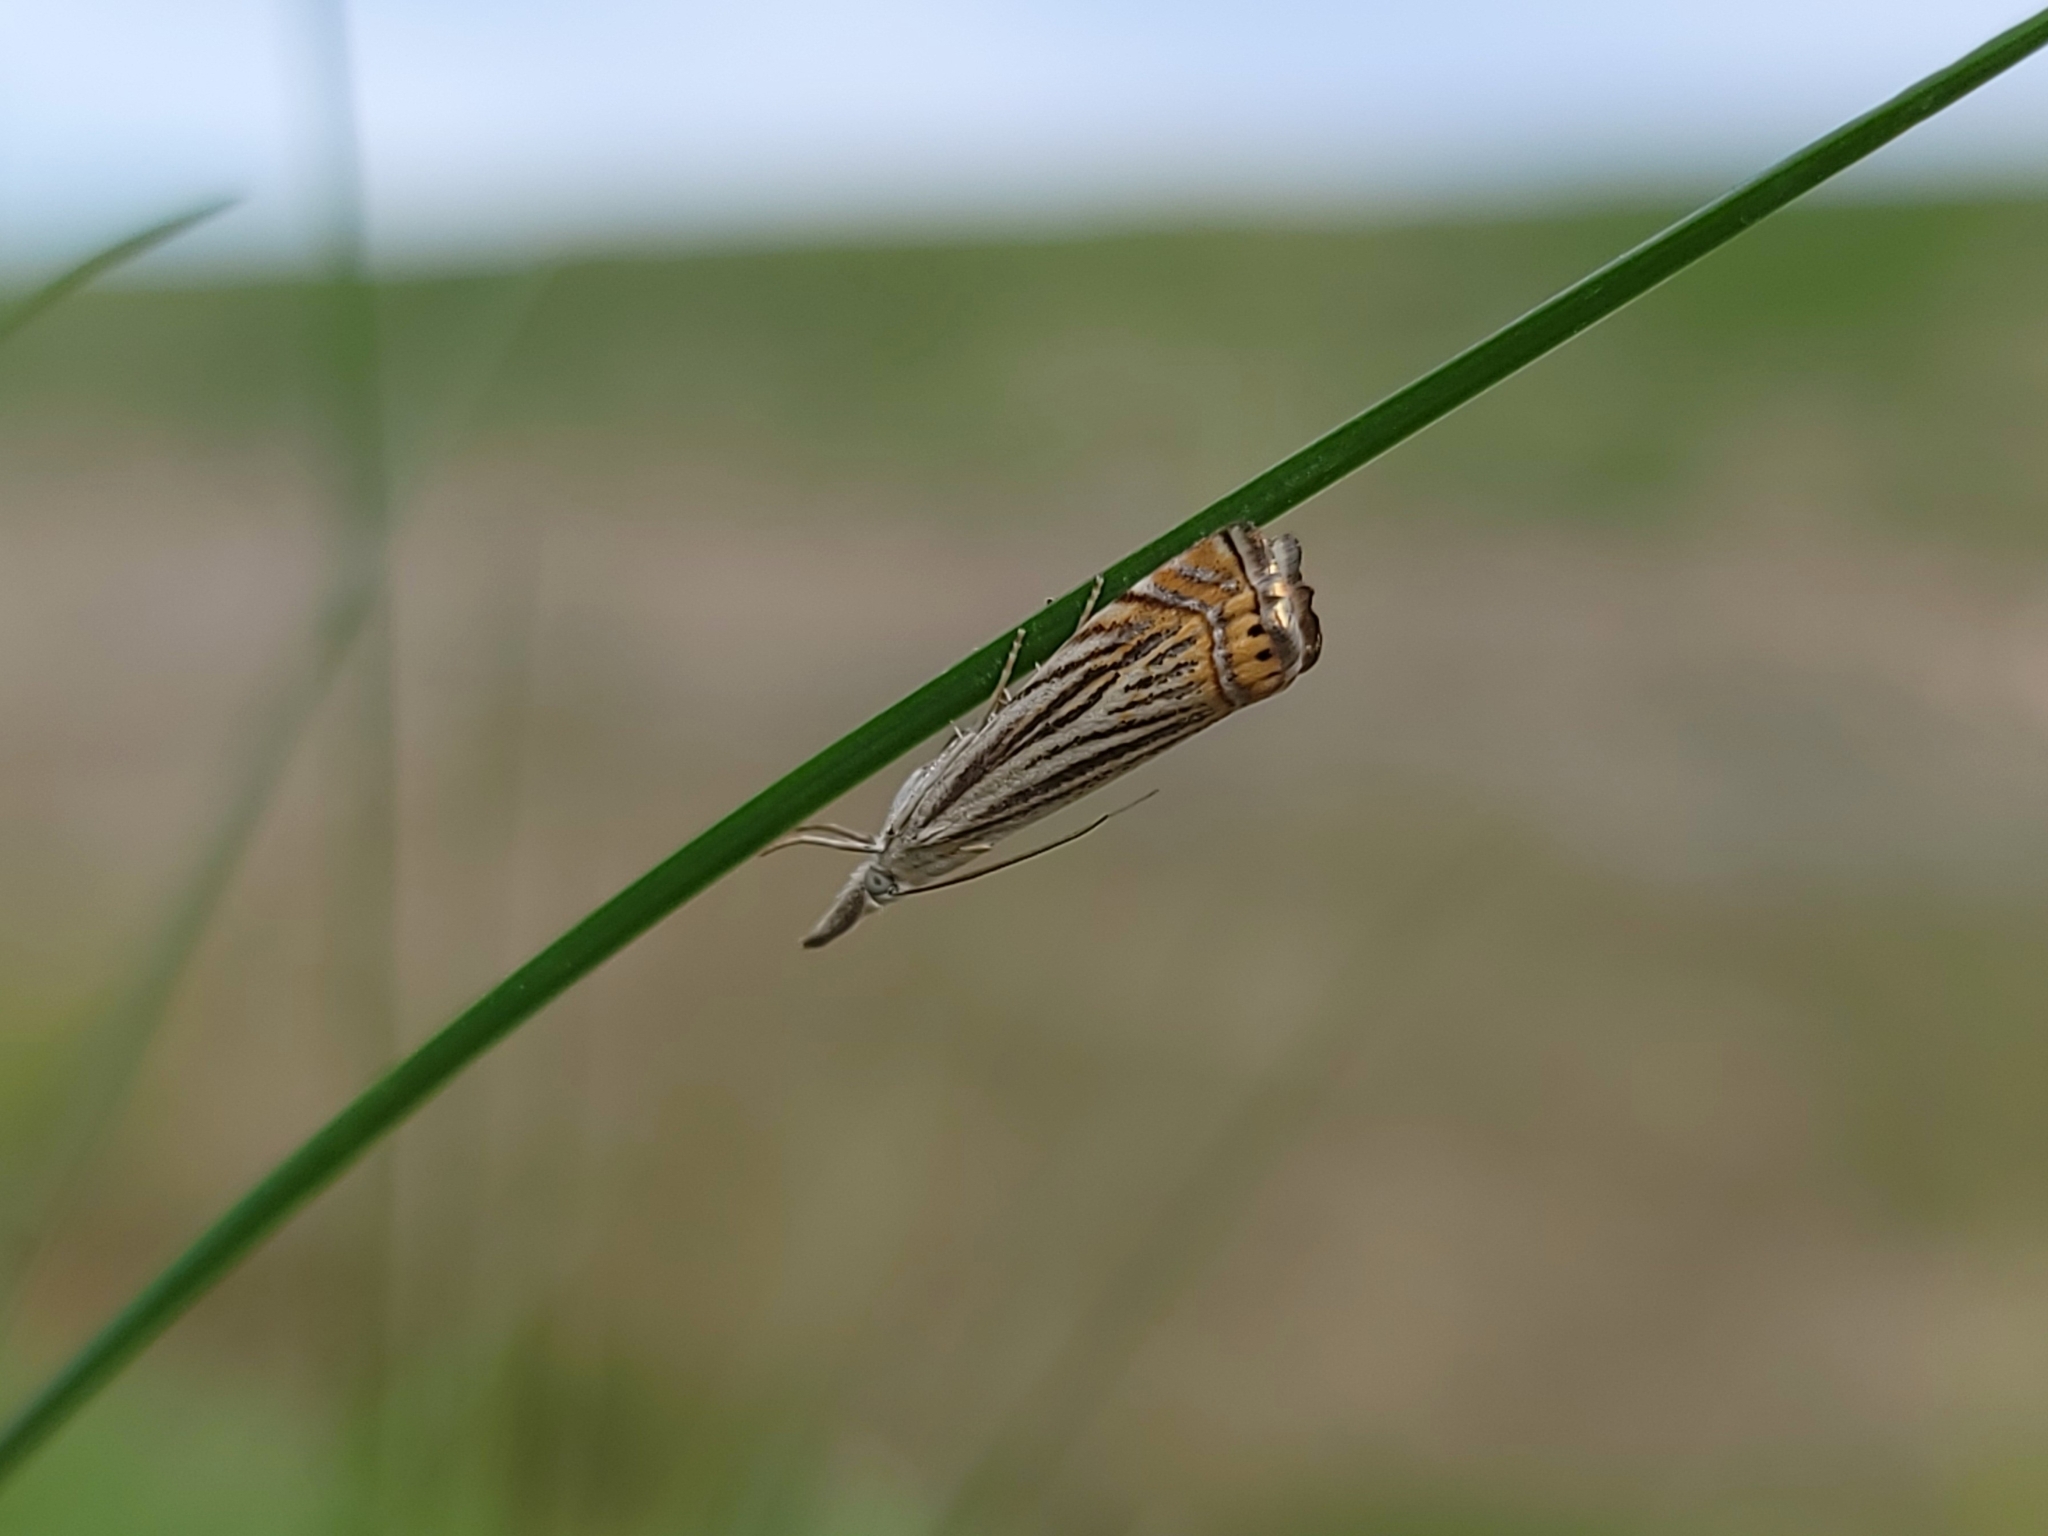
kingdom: Animalia
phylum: Arthropoda
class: Insecta
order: Lepidoptera
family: Crambidae
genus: Chrysoteuchia
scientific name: Chrysoteuchia topiarius
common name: Topiary grass-veneer
